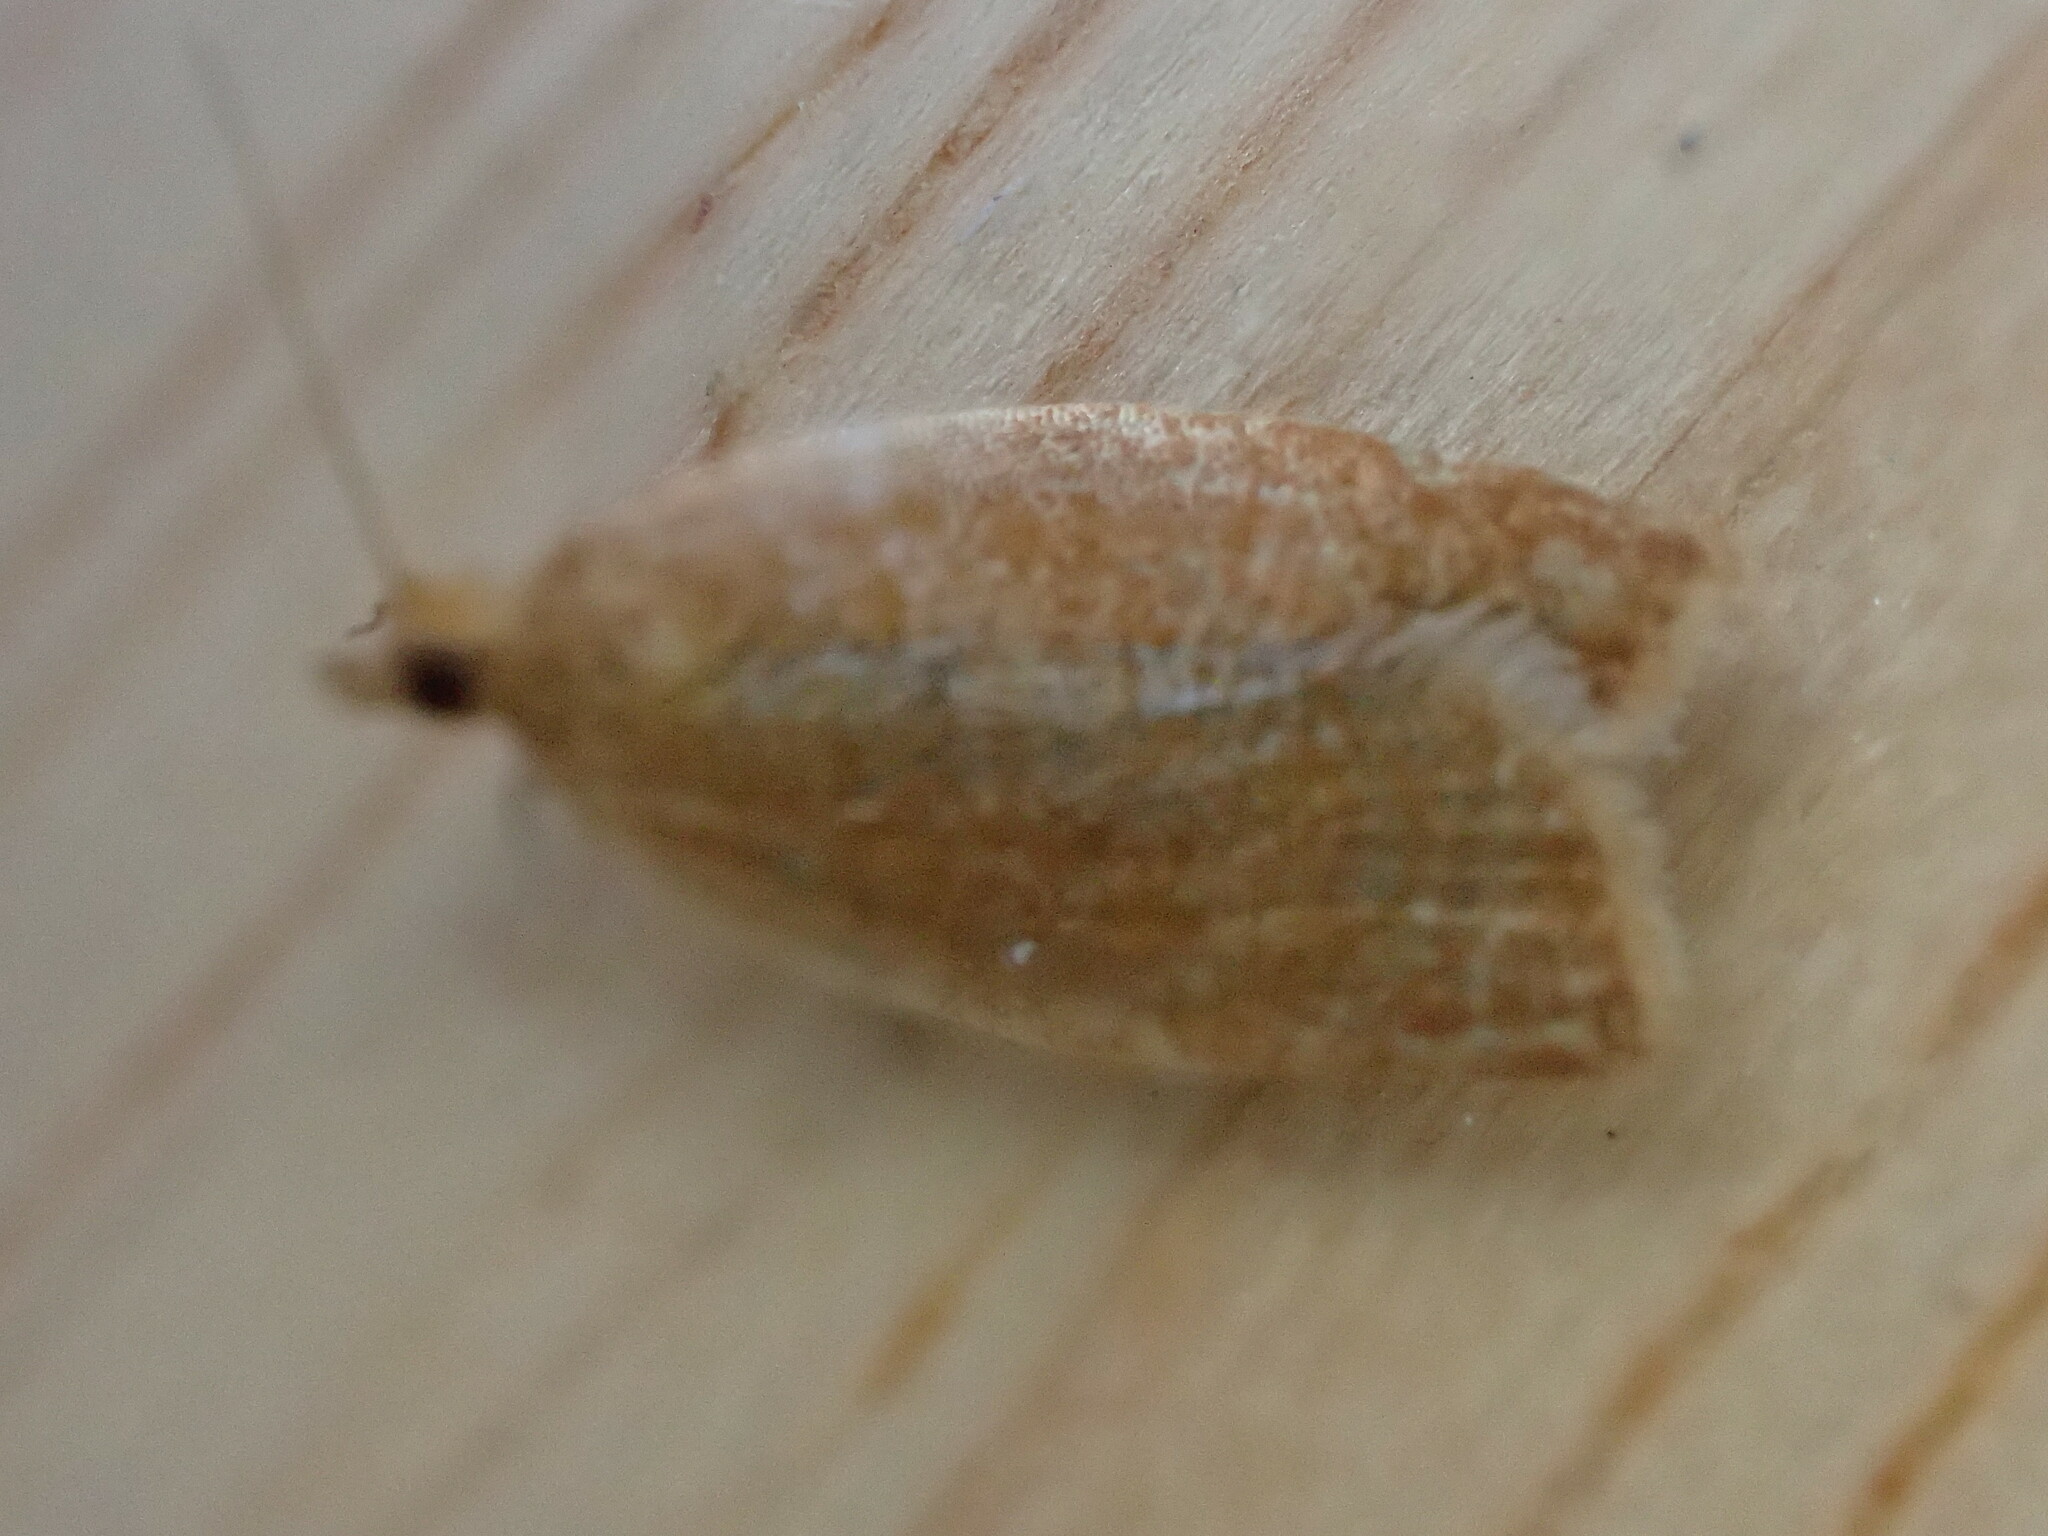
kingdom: Animalia
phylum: Arthropoda
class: Insecta
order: Lepidoptera
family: Tortricidae
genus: Clepsis
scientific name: Clepsis consimilana
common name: Privet tortrix
